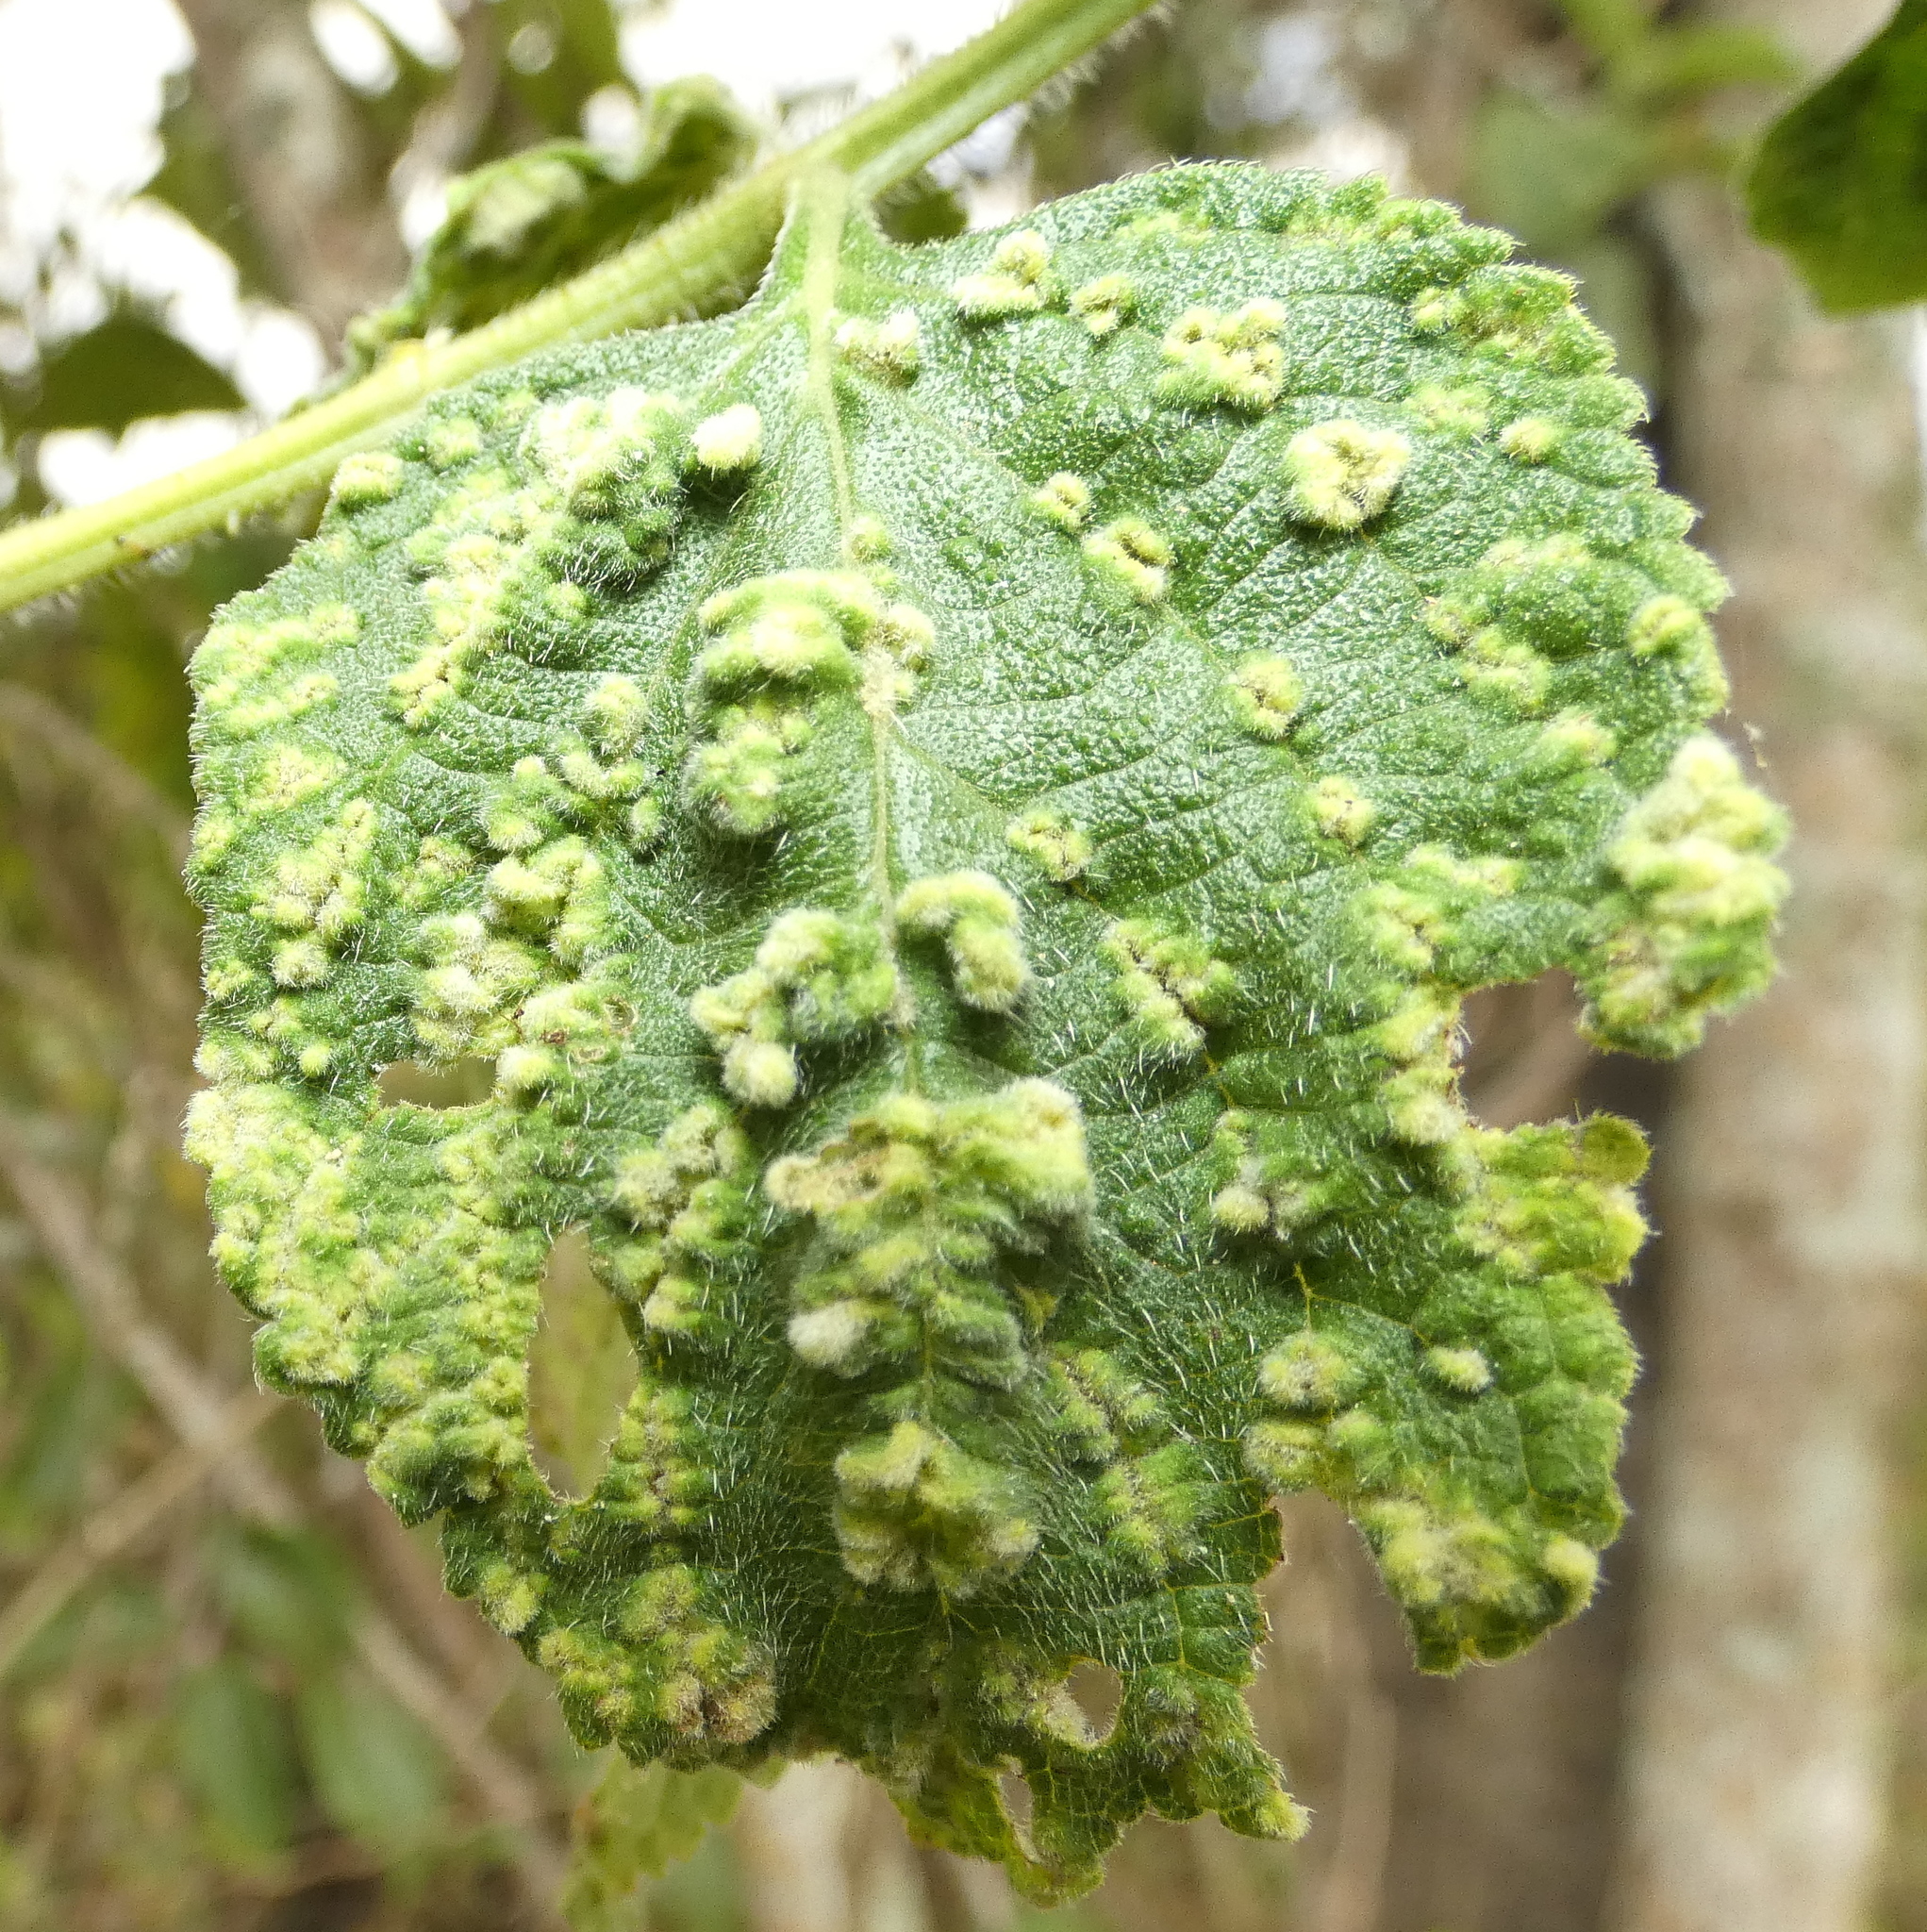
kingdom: Animalia
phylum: Arthropoda
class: Arachnida
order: Trombidiformes
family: Eriophyidae
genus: Aceria
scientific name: Aceria lantanae
